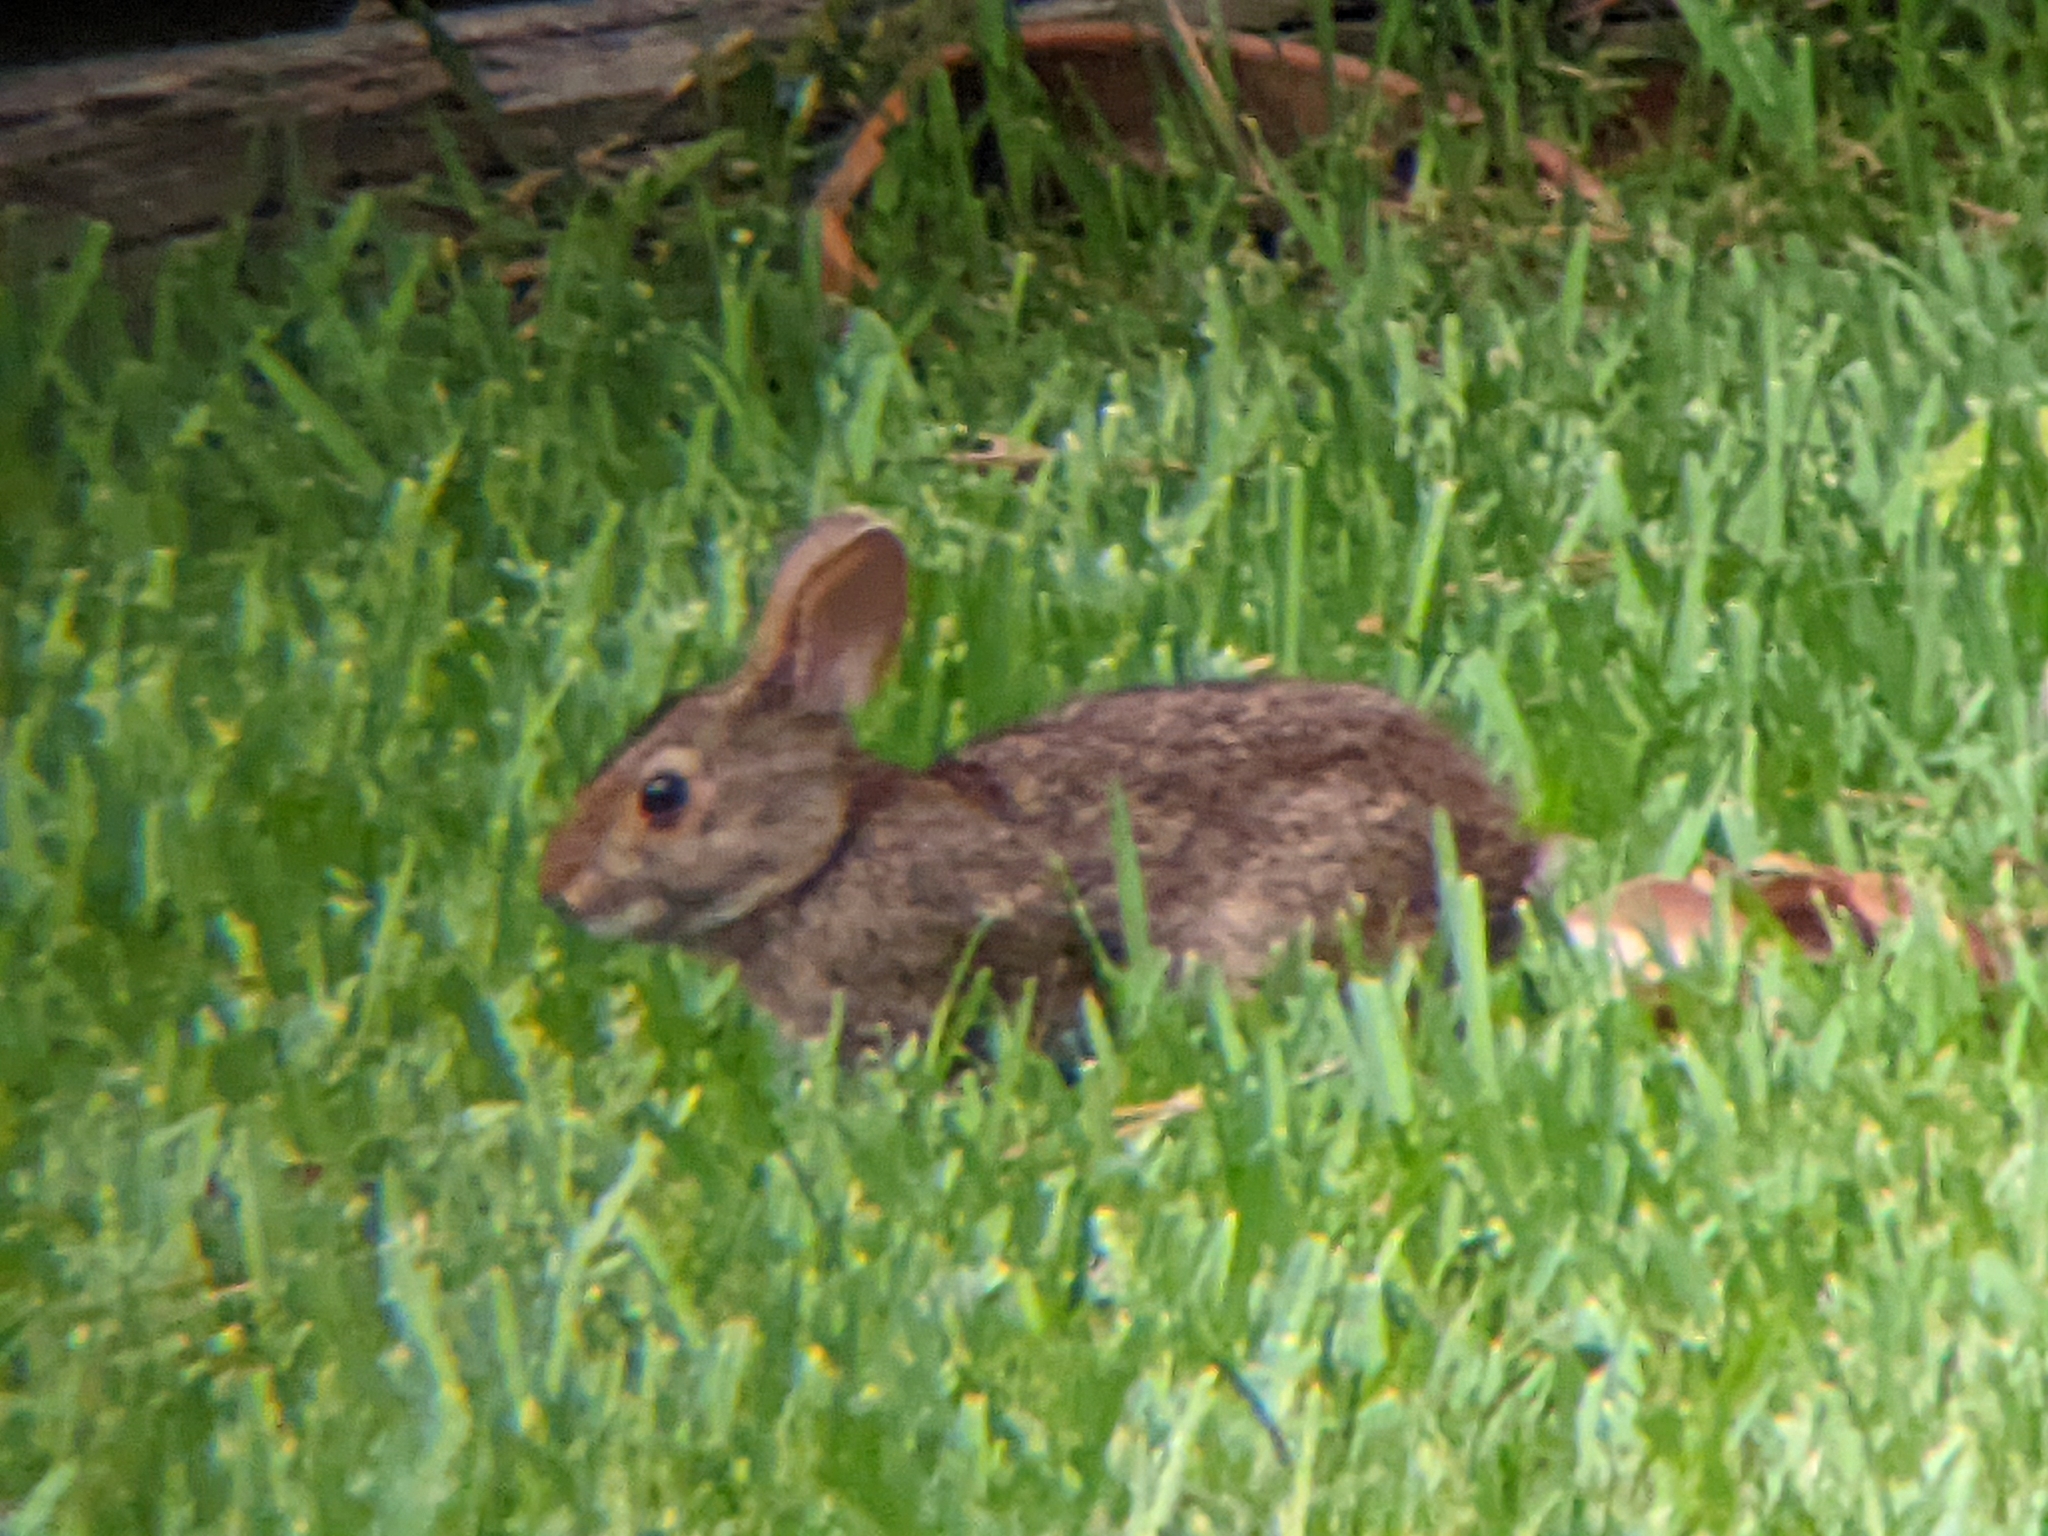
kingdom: Animalia
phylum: Chordata
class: Mammalia
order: Lagomorpha
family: Leporidae
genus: Sylvilagus
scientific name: Sylvilagus aquaticus
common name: Swamp rabbit
